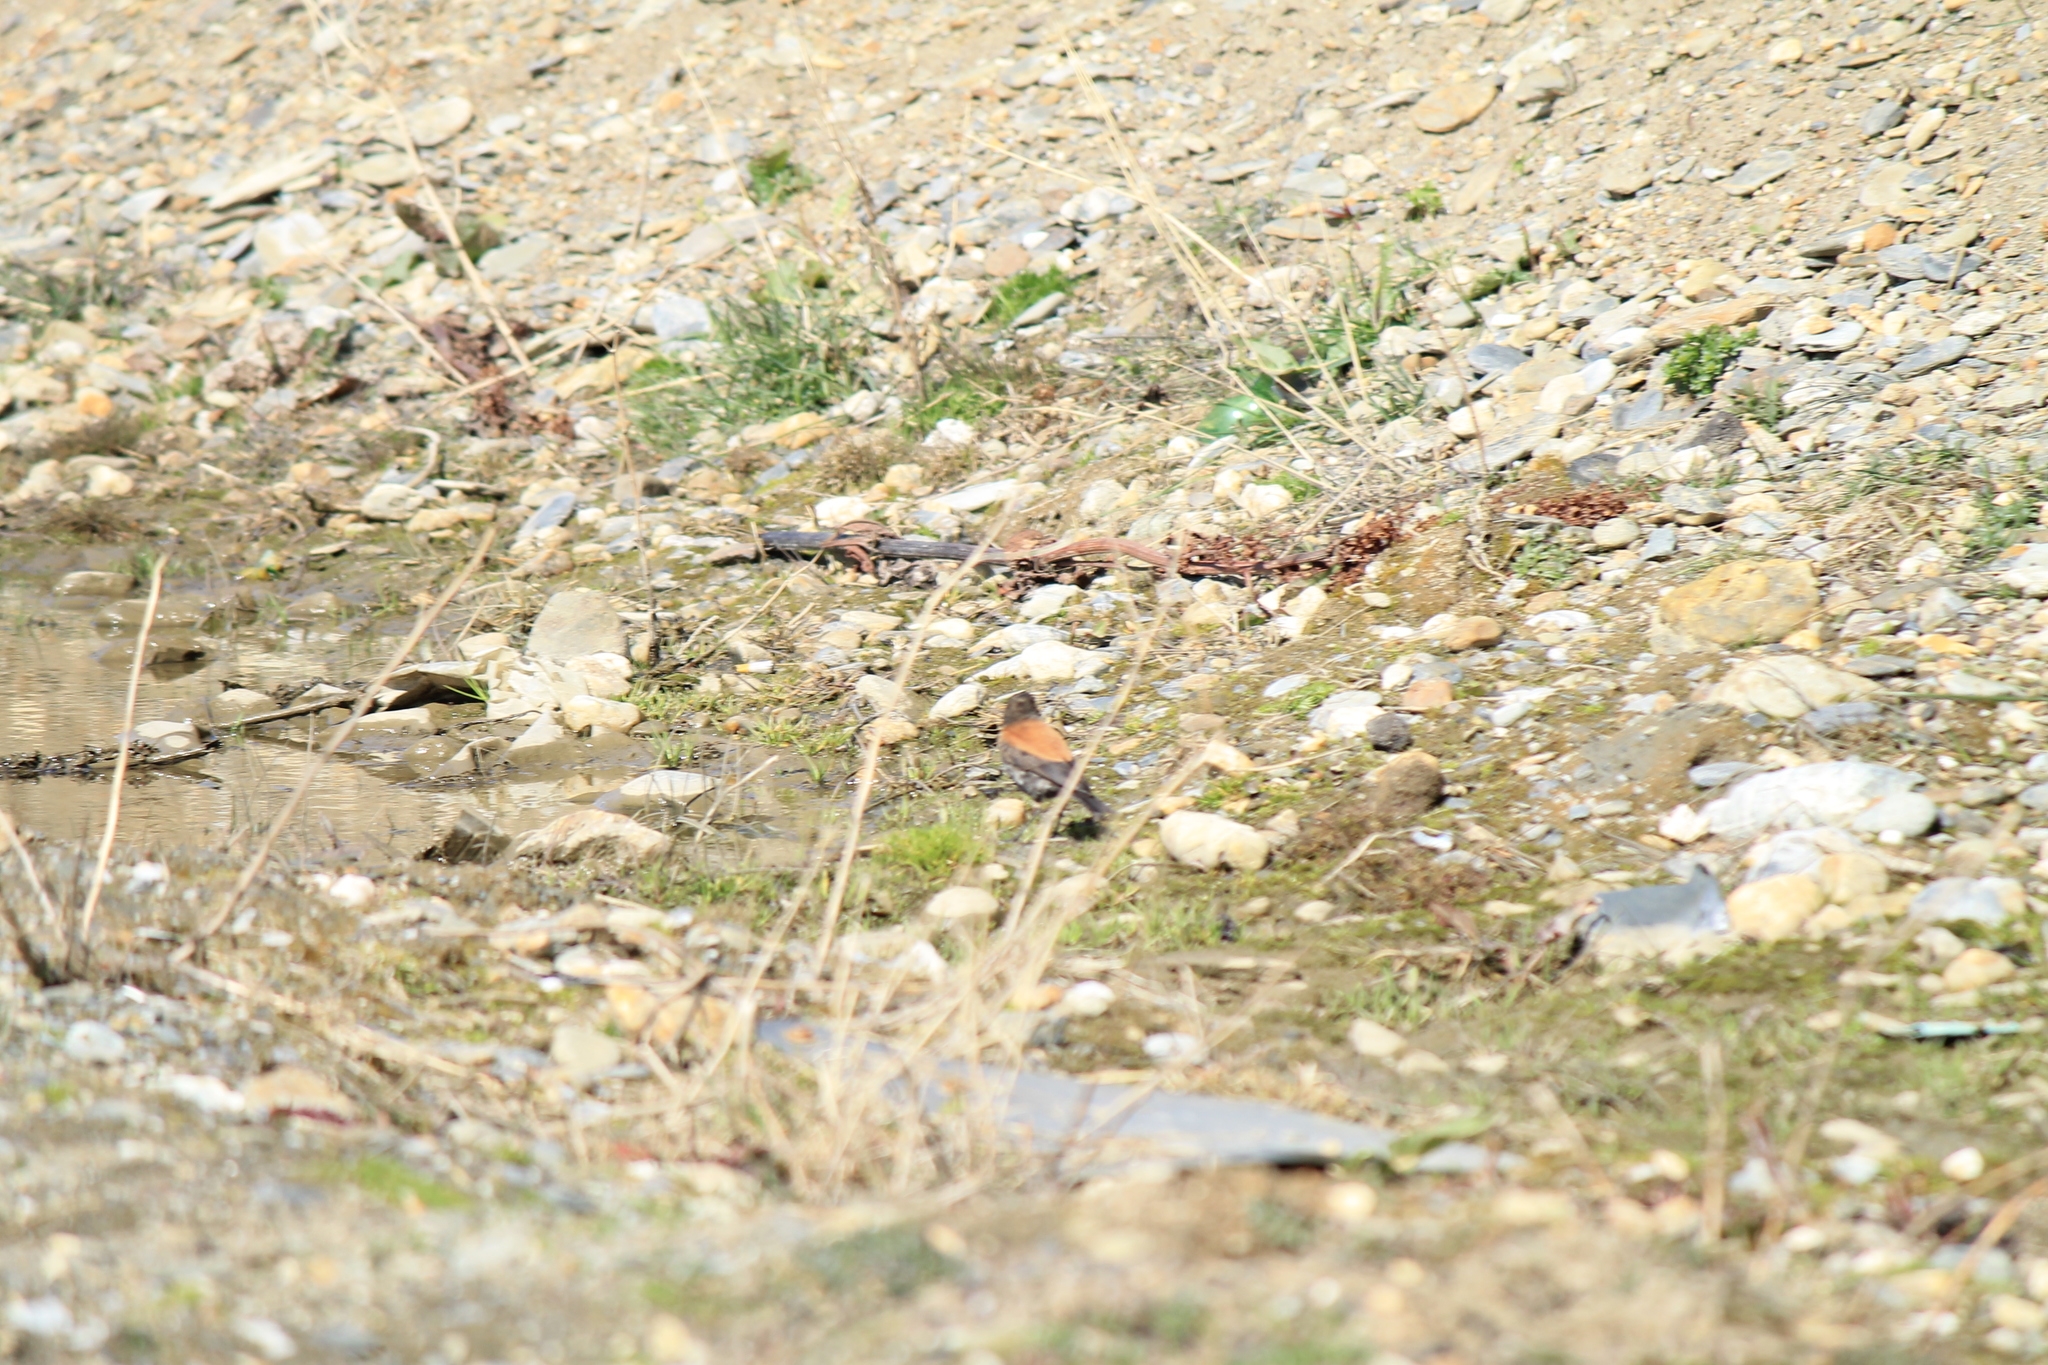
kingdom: Animalia
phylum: Chordata
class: Aves
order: Passeriformes
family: Tyrannidae
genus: Lessonia
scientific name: Lessonia rufa
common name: Austral negrito
